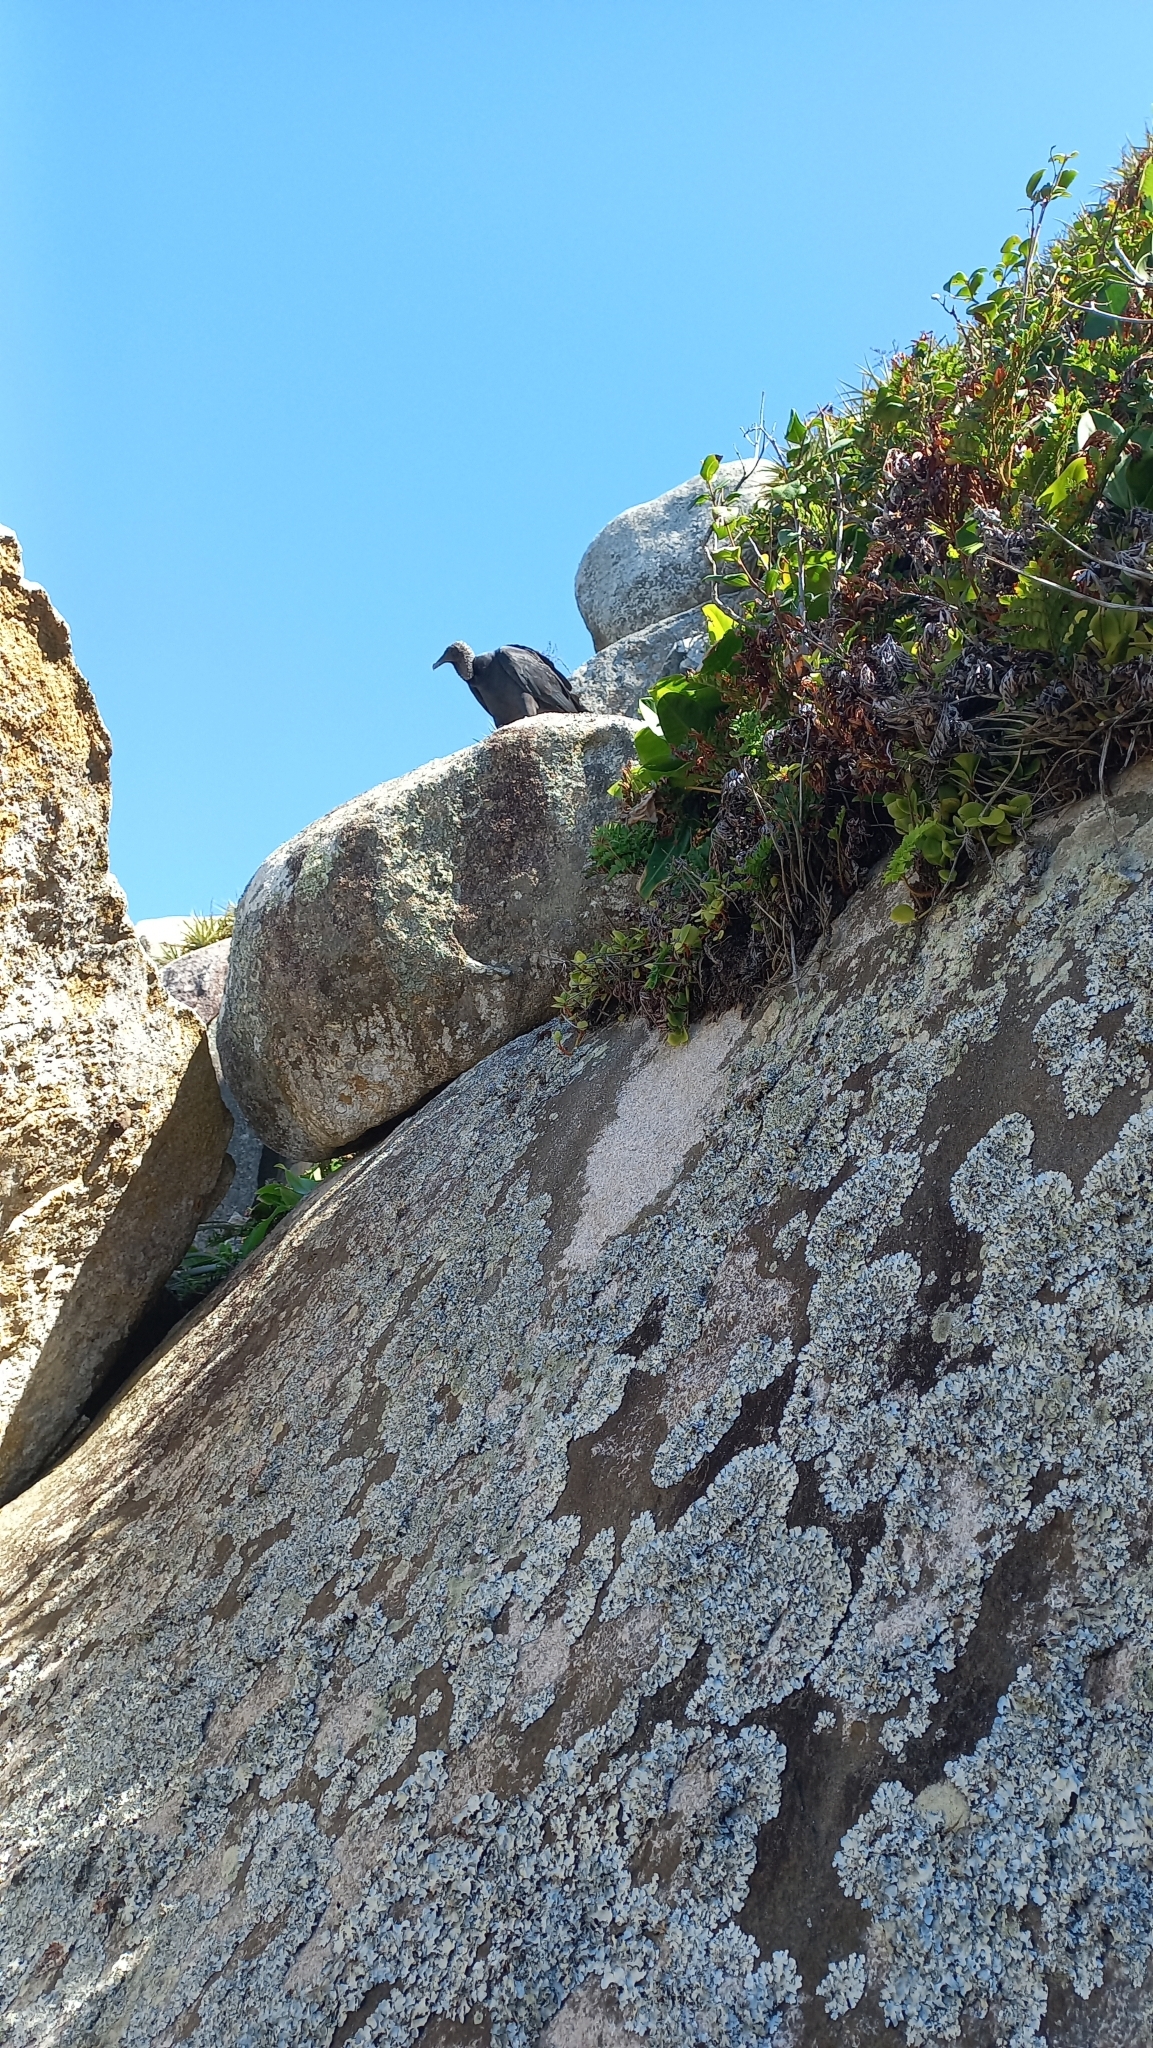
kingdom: Animalia
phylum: Chordata
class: Aves
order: Accipitriformes
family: Cathartidae
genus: Coragyps
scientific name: Coragyps atratus
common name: Black vulture
